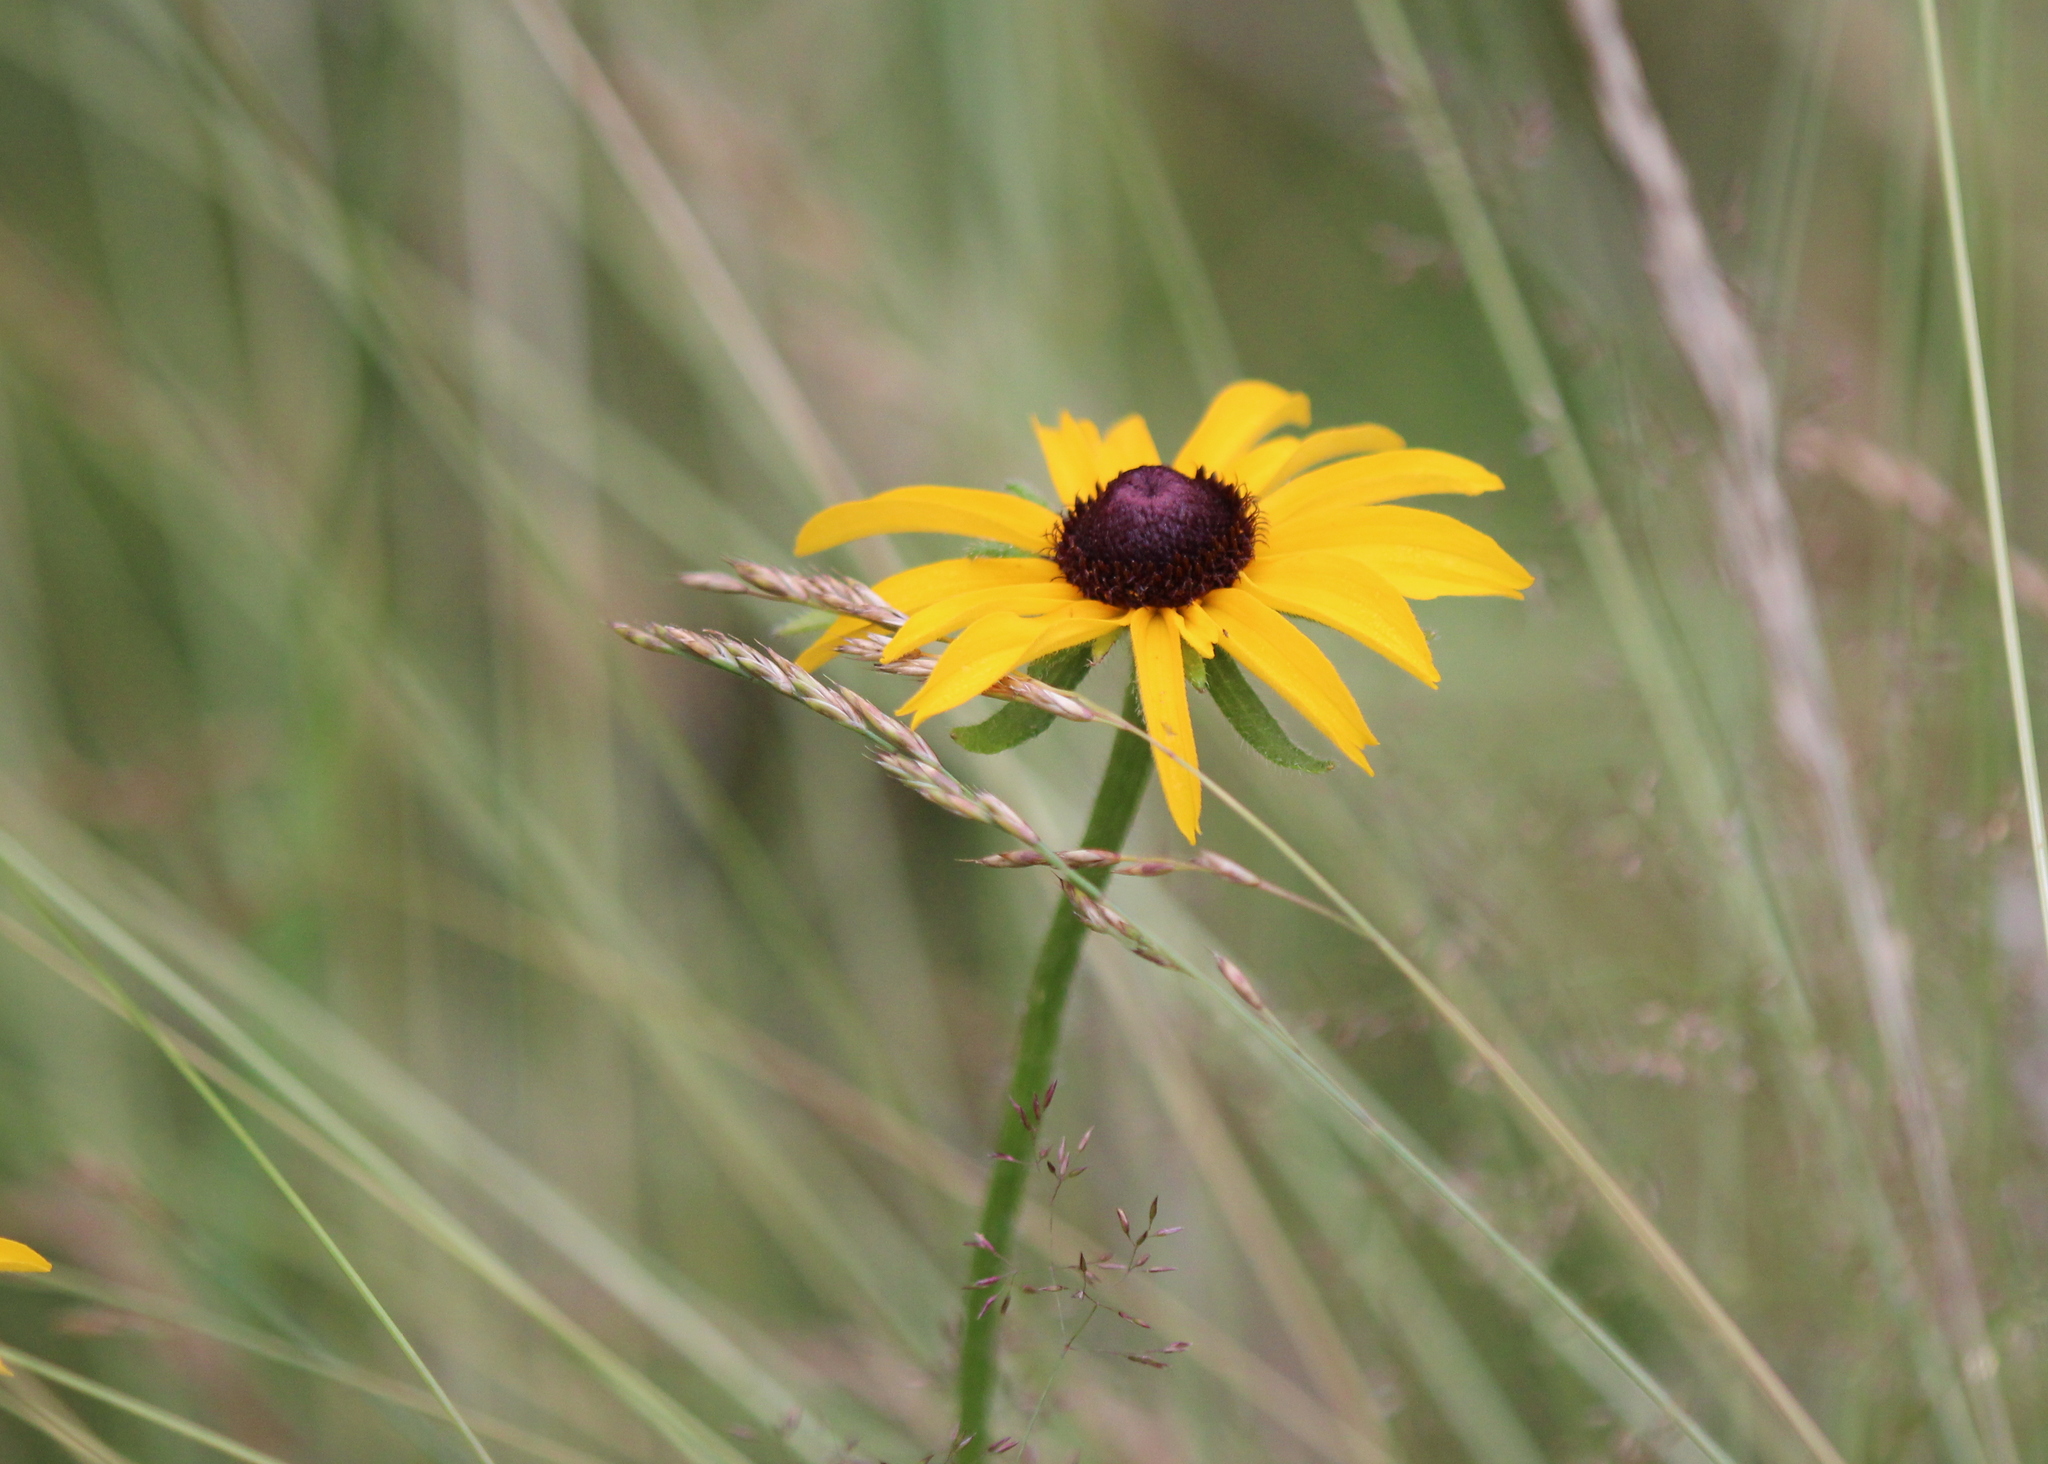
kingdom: Plantae
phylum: Tracheophyta
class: Magnoliopsida
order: Asterales
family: Asteraceae
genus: Rudbeckia
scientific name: Rudbeckia hirta
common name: Black-eyed-susan
